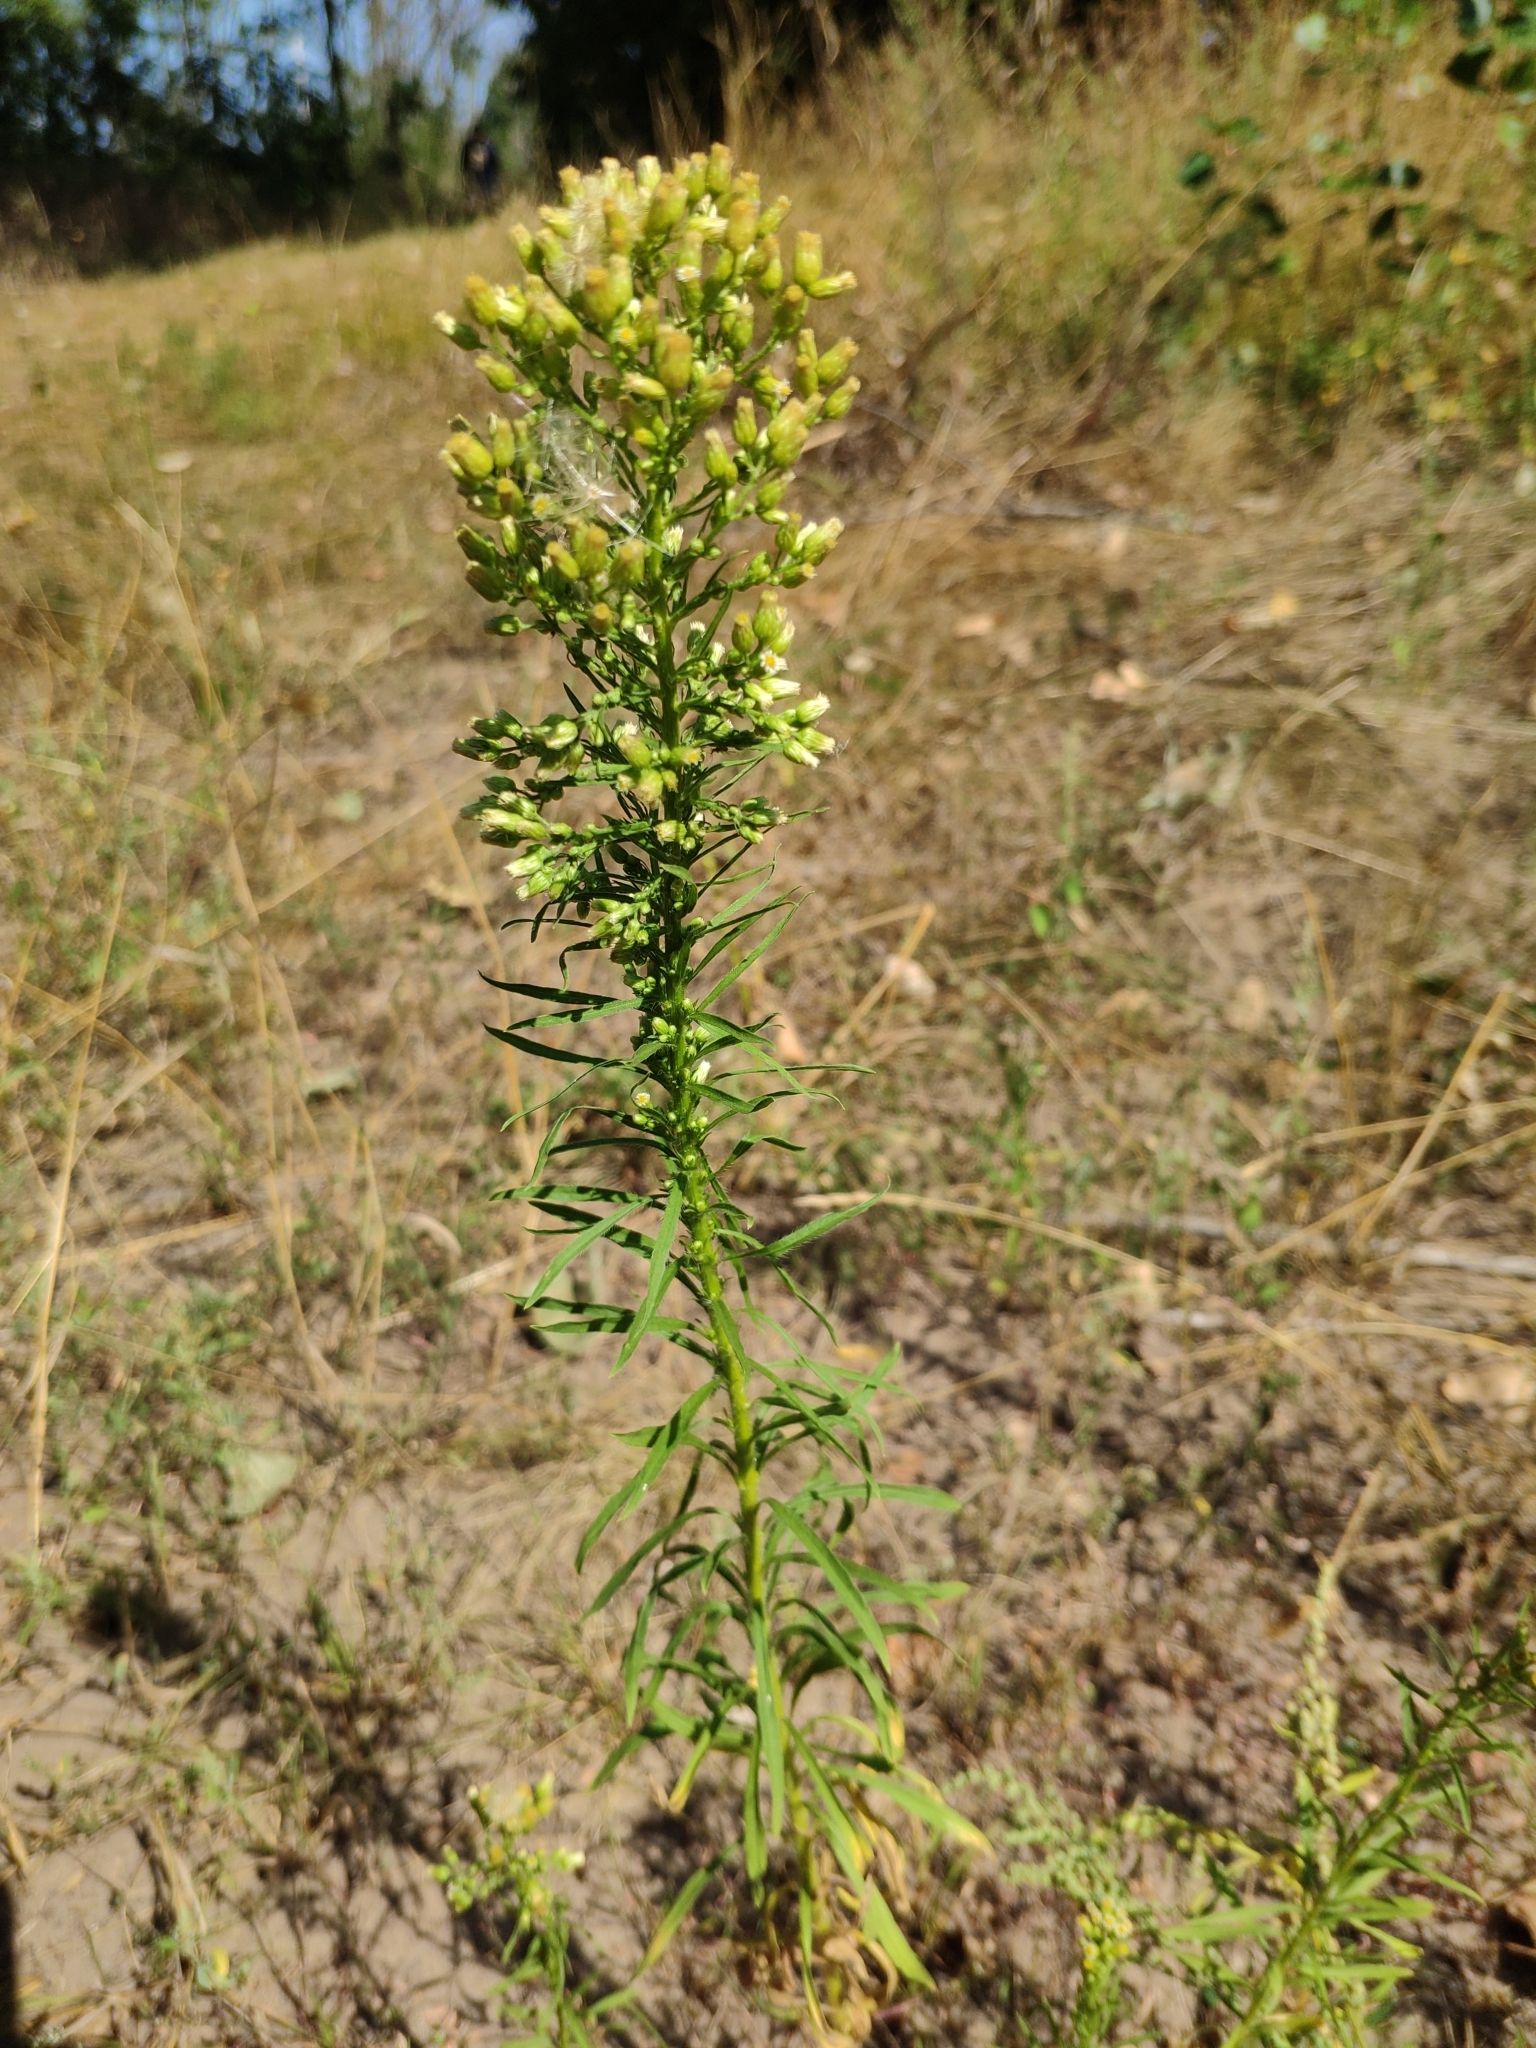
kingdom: Plantae
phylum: Tracheophyta
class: Magnoliopsida
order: Asterales
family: Asteraceae
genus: Erigeron
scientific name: Erigeron canadensis
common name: Canadian fleabane
